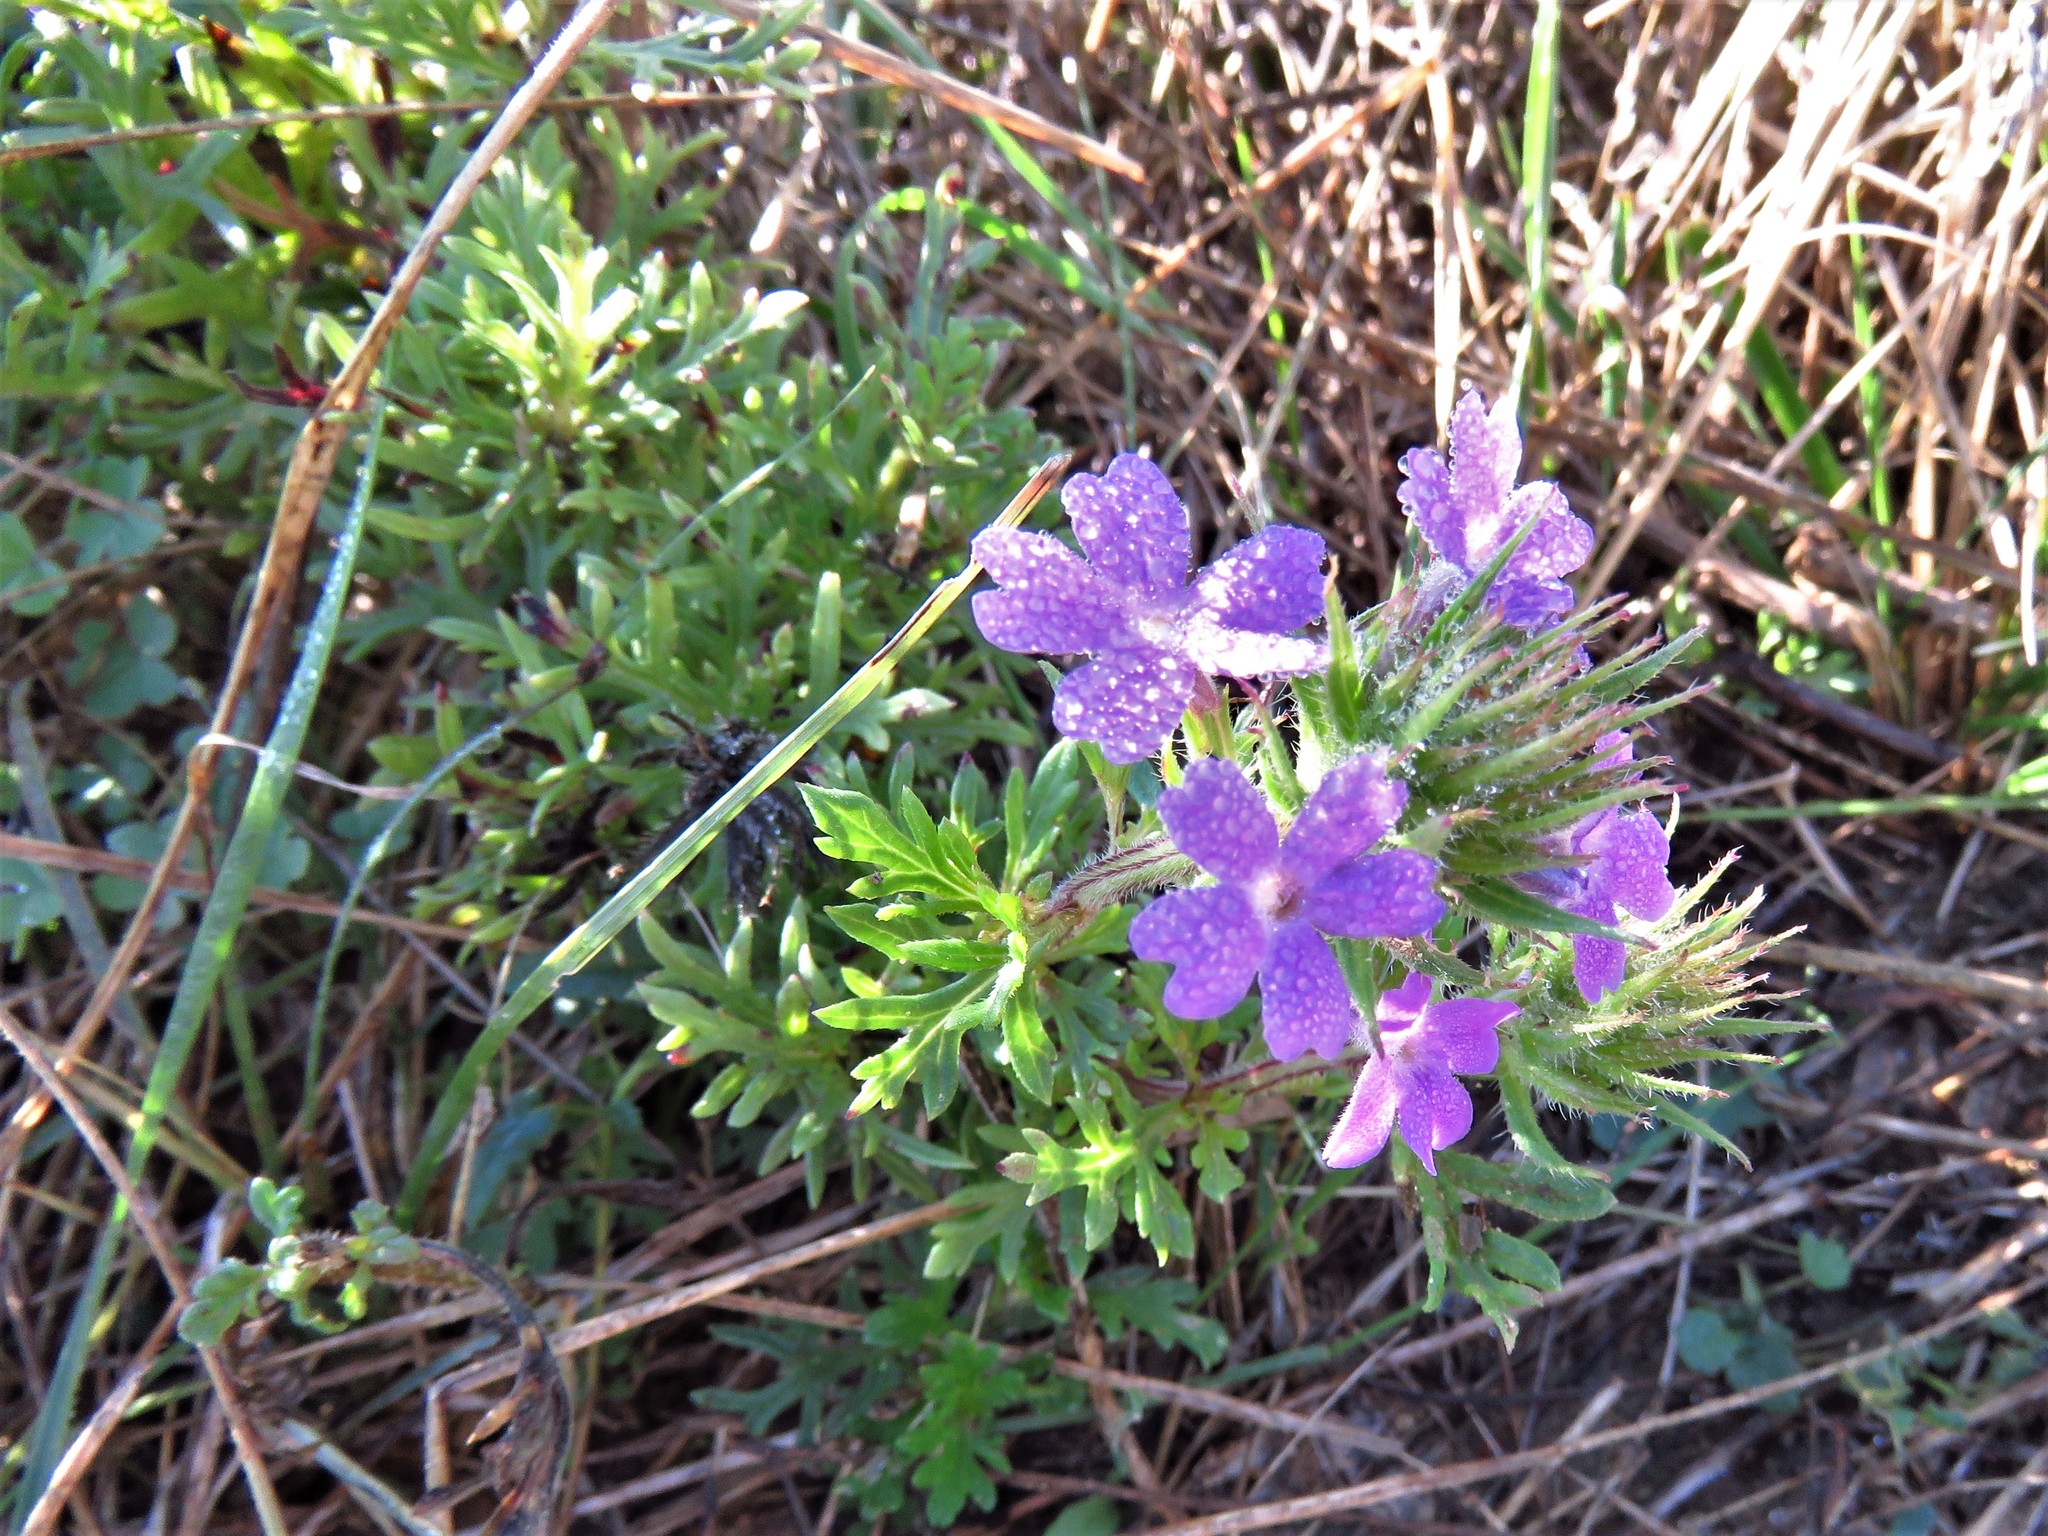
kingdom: Plantae
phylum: Tracheophyta
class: Magnoliopsida
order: Lamiales
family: Verbenaceae
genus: Verbena
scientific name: Verbena bipinnatifida
